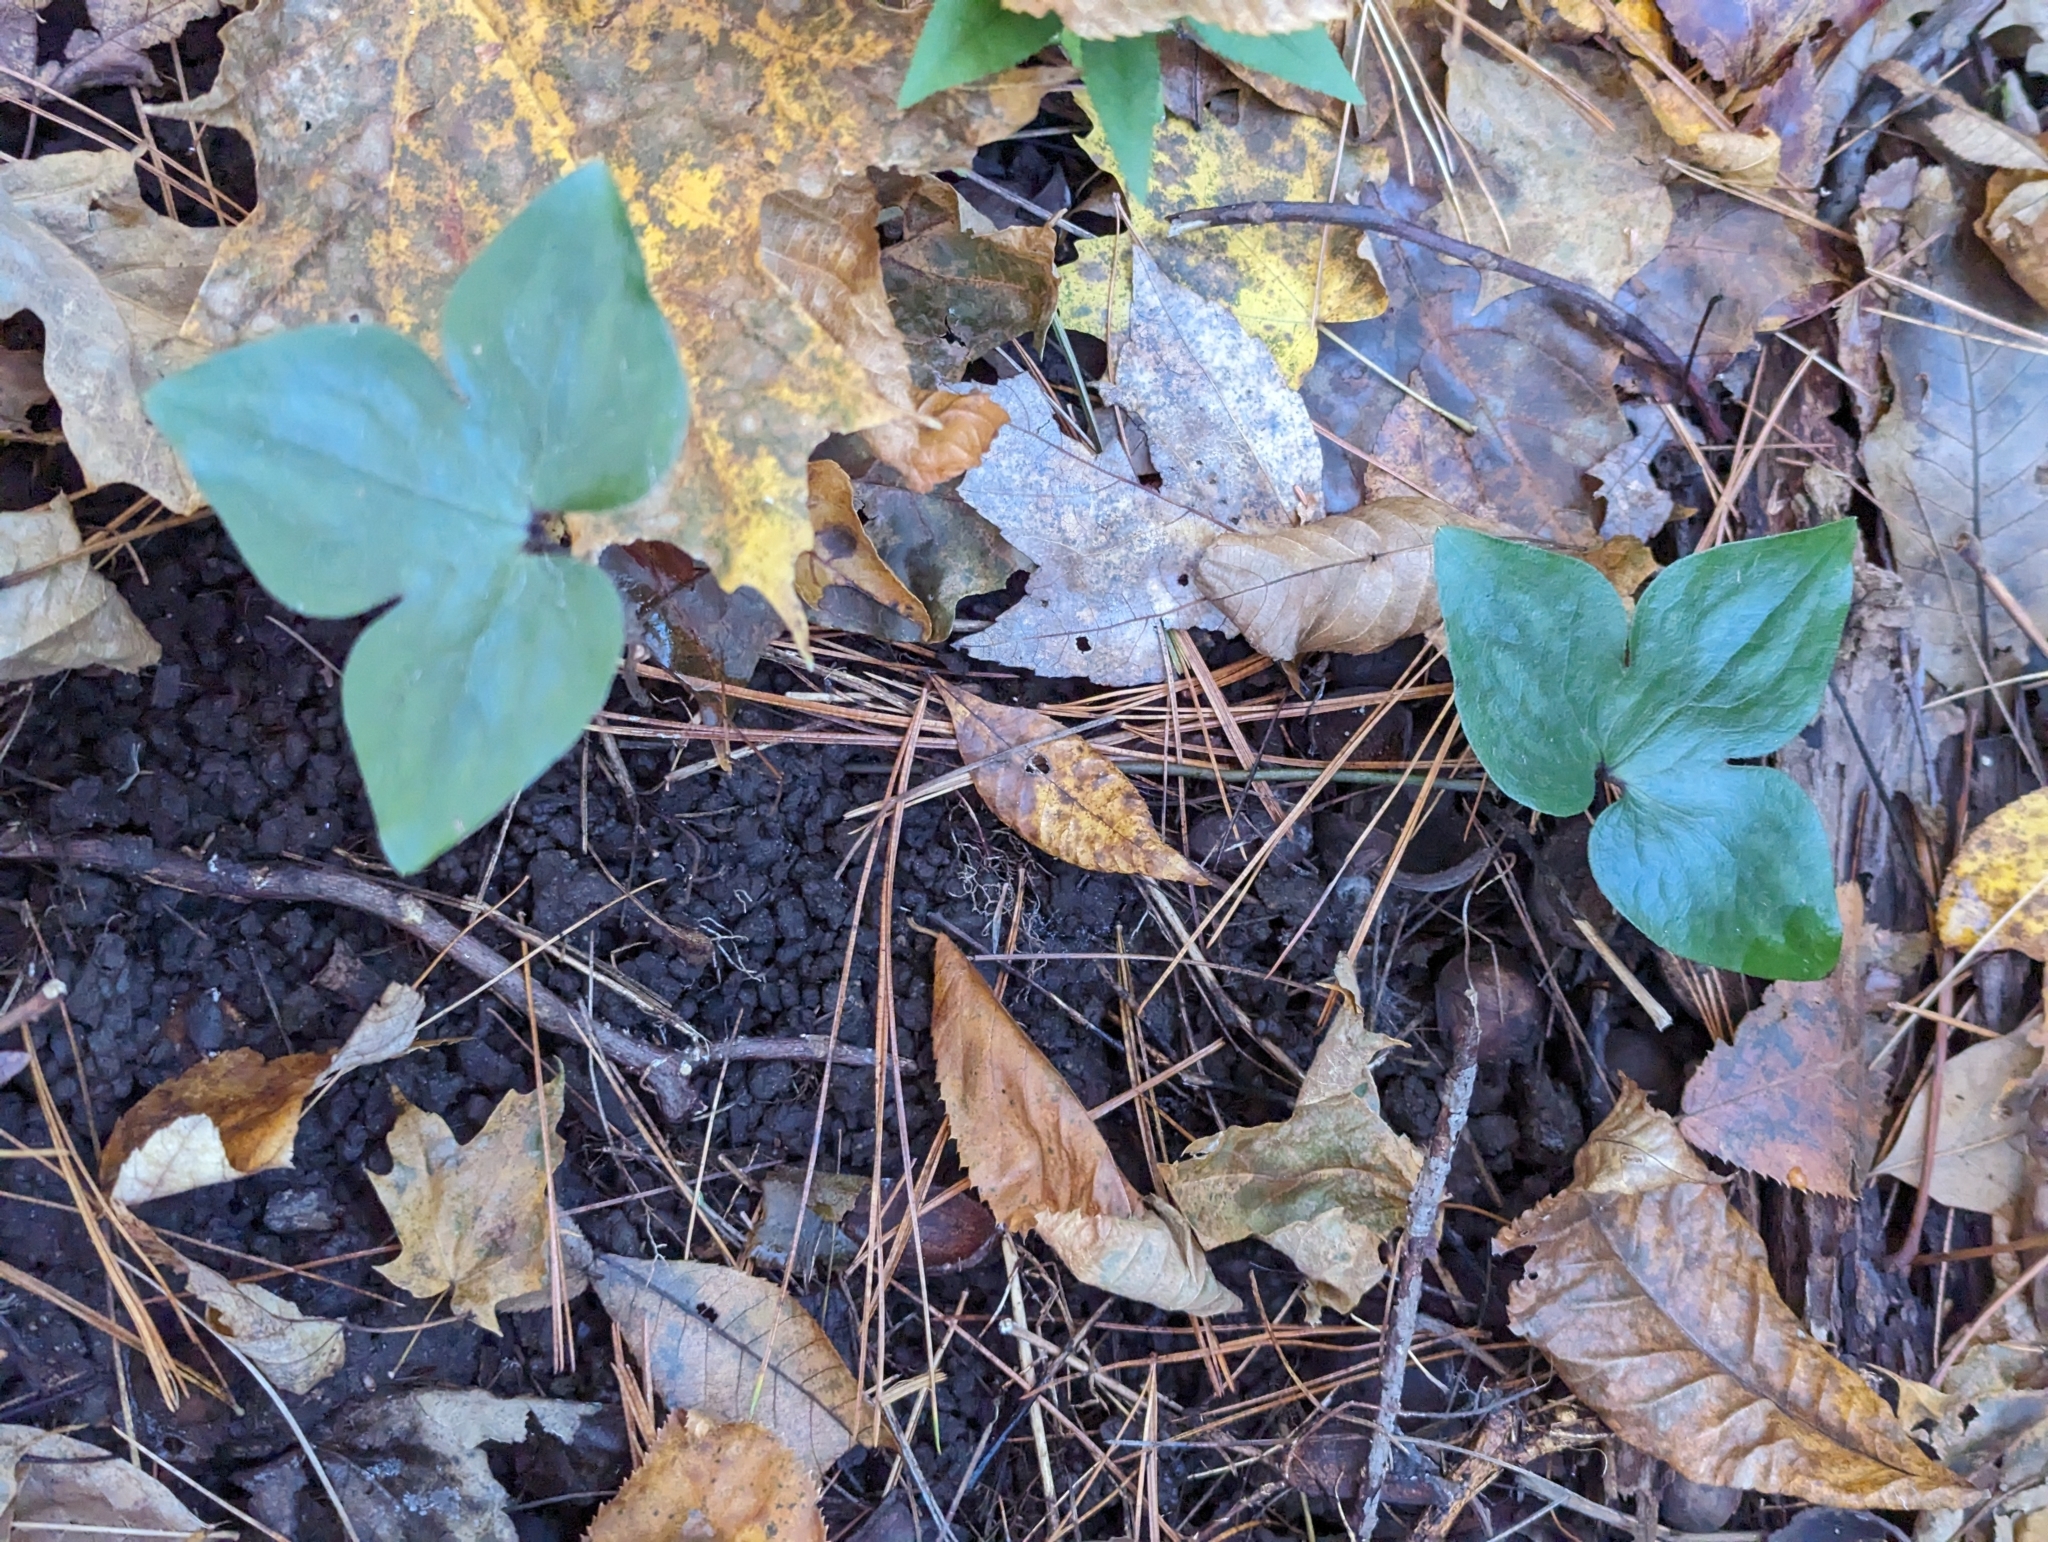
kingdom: Plantae
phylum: Tracheophyta
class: Magnoliopsida
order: Ranunculales
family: Ranunculaceae
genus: Hepatica
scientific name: Hepatica acutiloba
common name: Sharp-lobed hepatica
